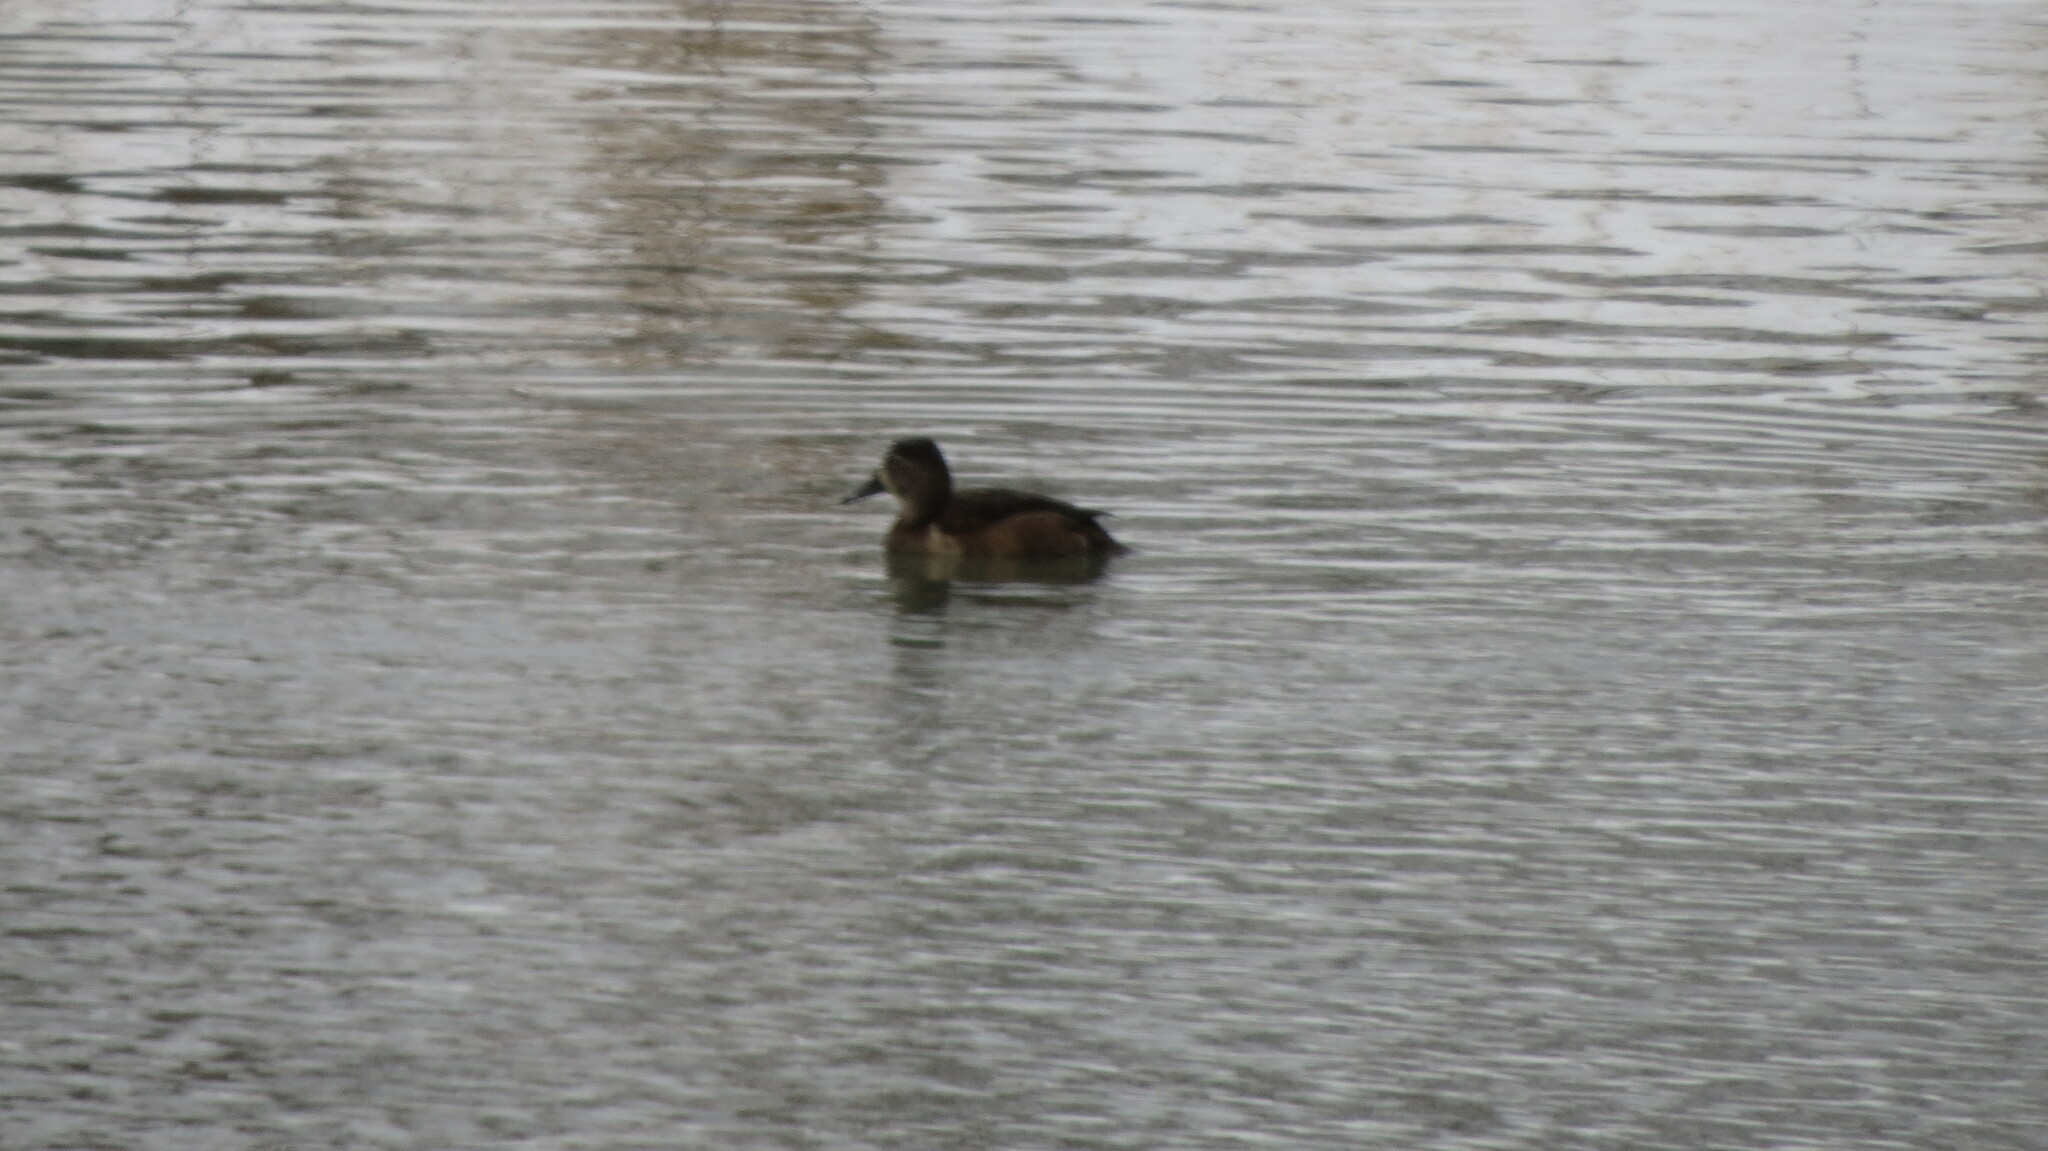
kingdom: Animalia
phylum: Chordata
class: Aves
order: Anseriformes
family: Anatidae
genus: Aythya
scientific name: Aythya collaris
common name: Ring-necked duck
